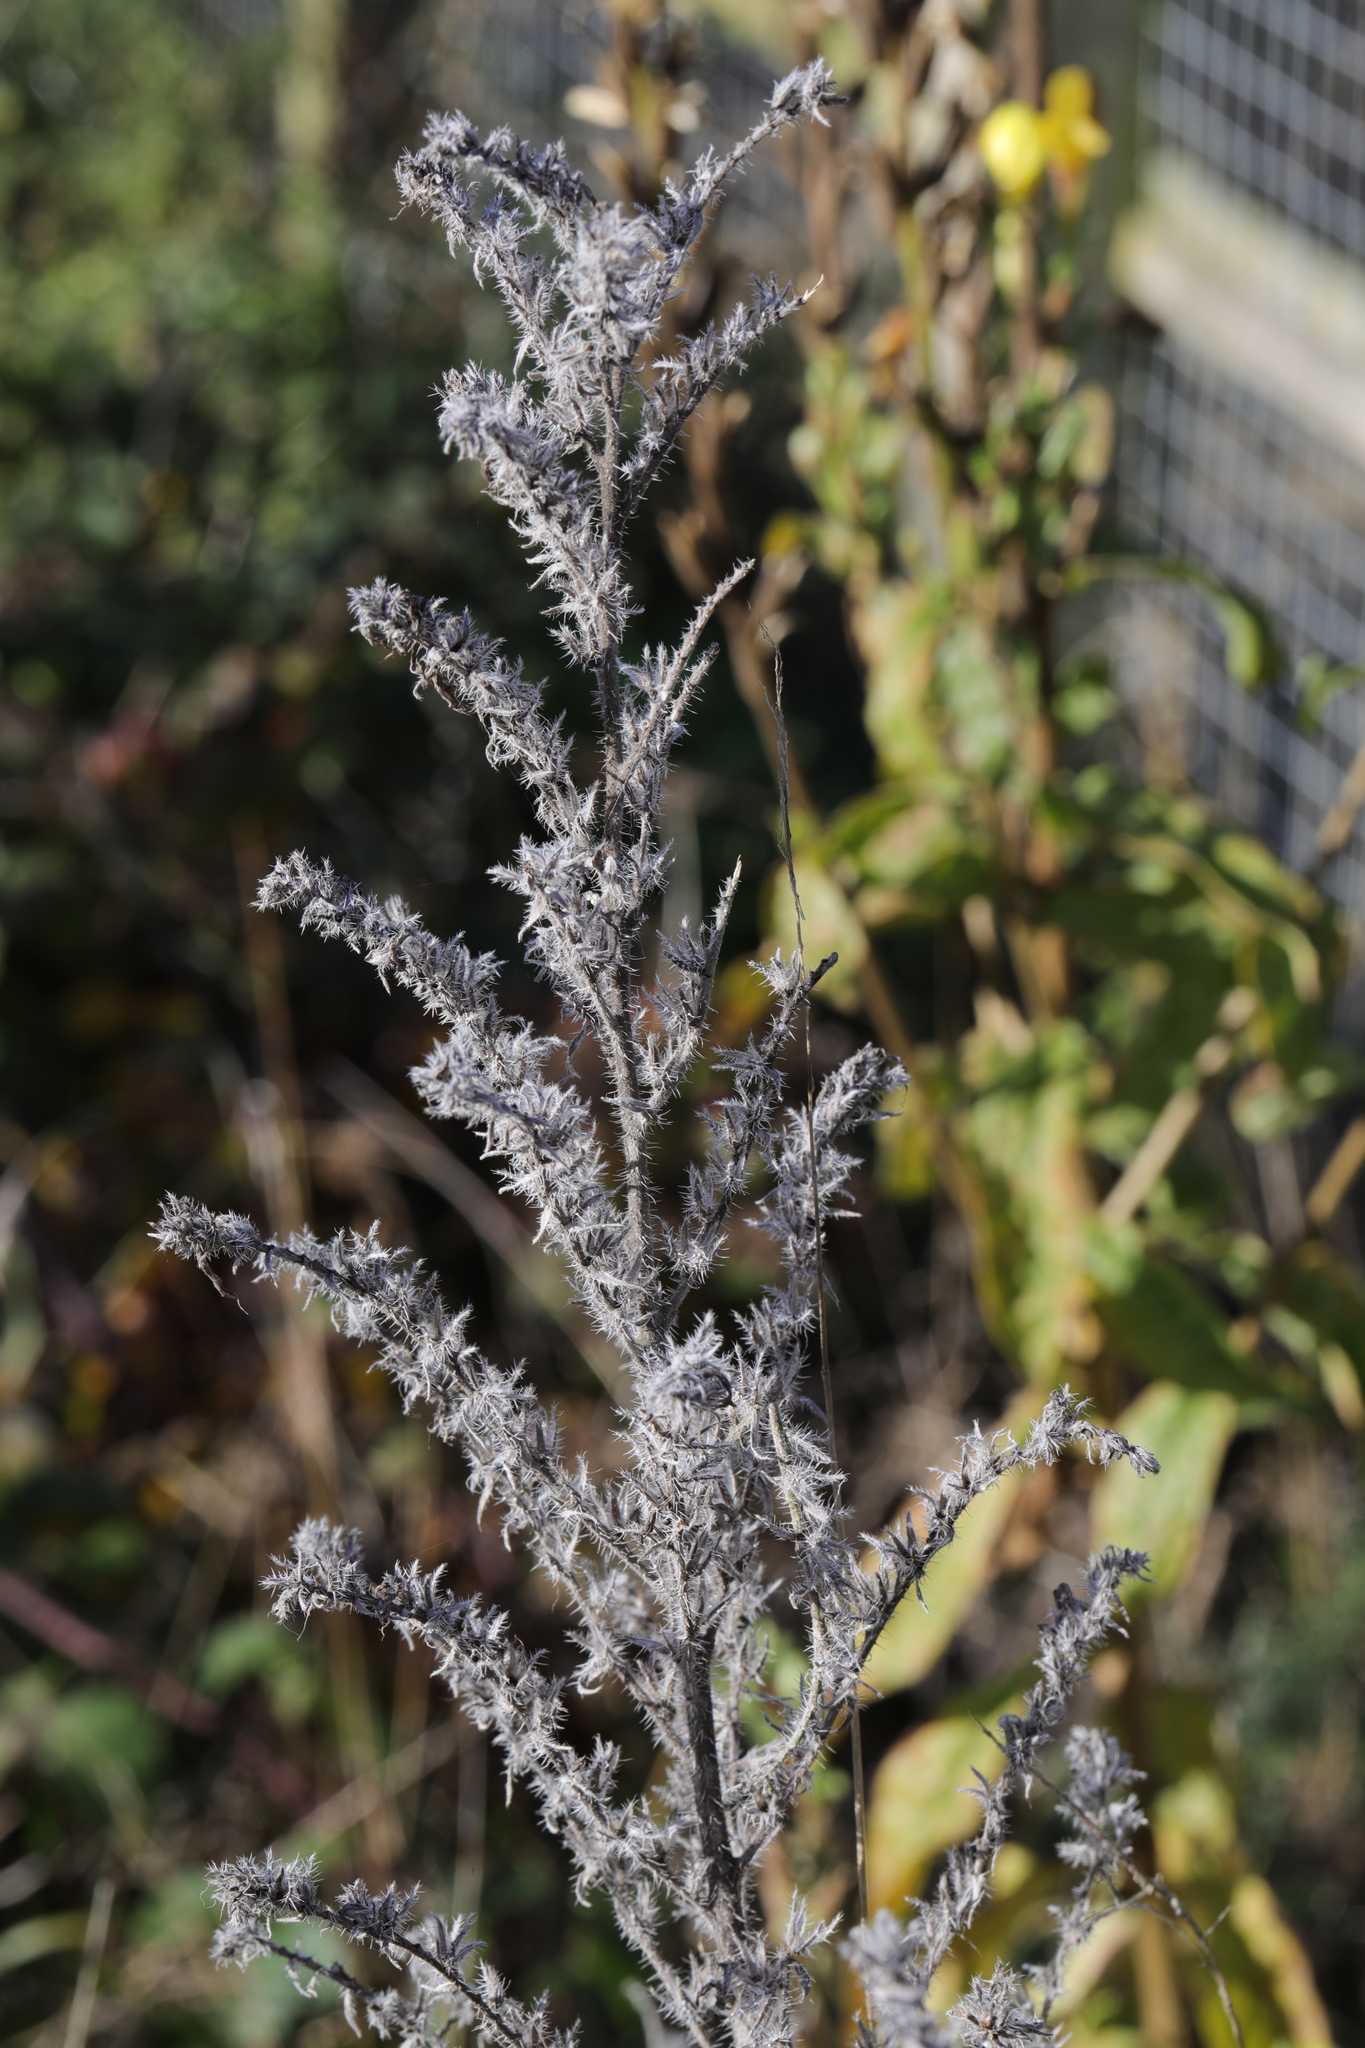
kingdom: Plantae
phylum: Tracheophyta
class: Magnoliopsida
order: Boraginales
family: Boraginaceae
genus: Echium
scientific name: Echium vulgare
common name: Common viper's bugloss
